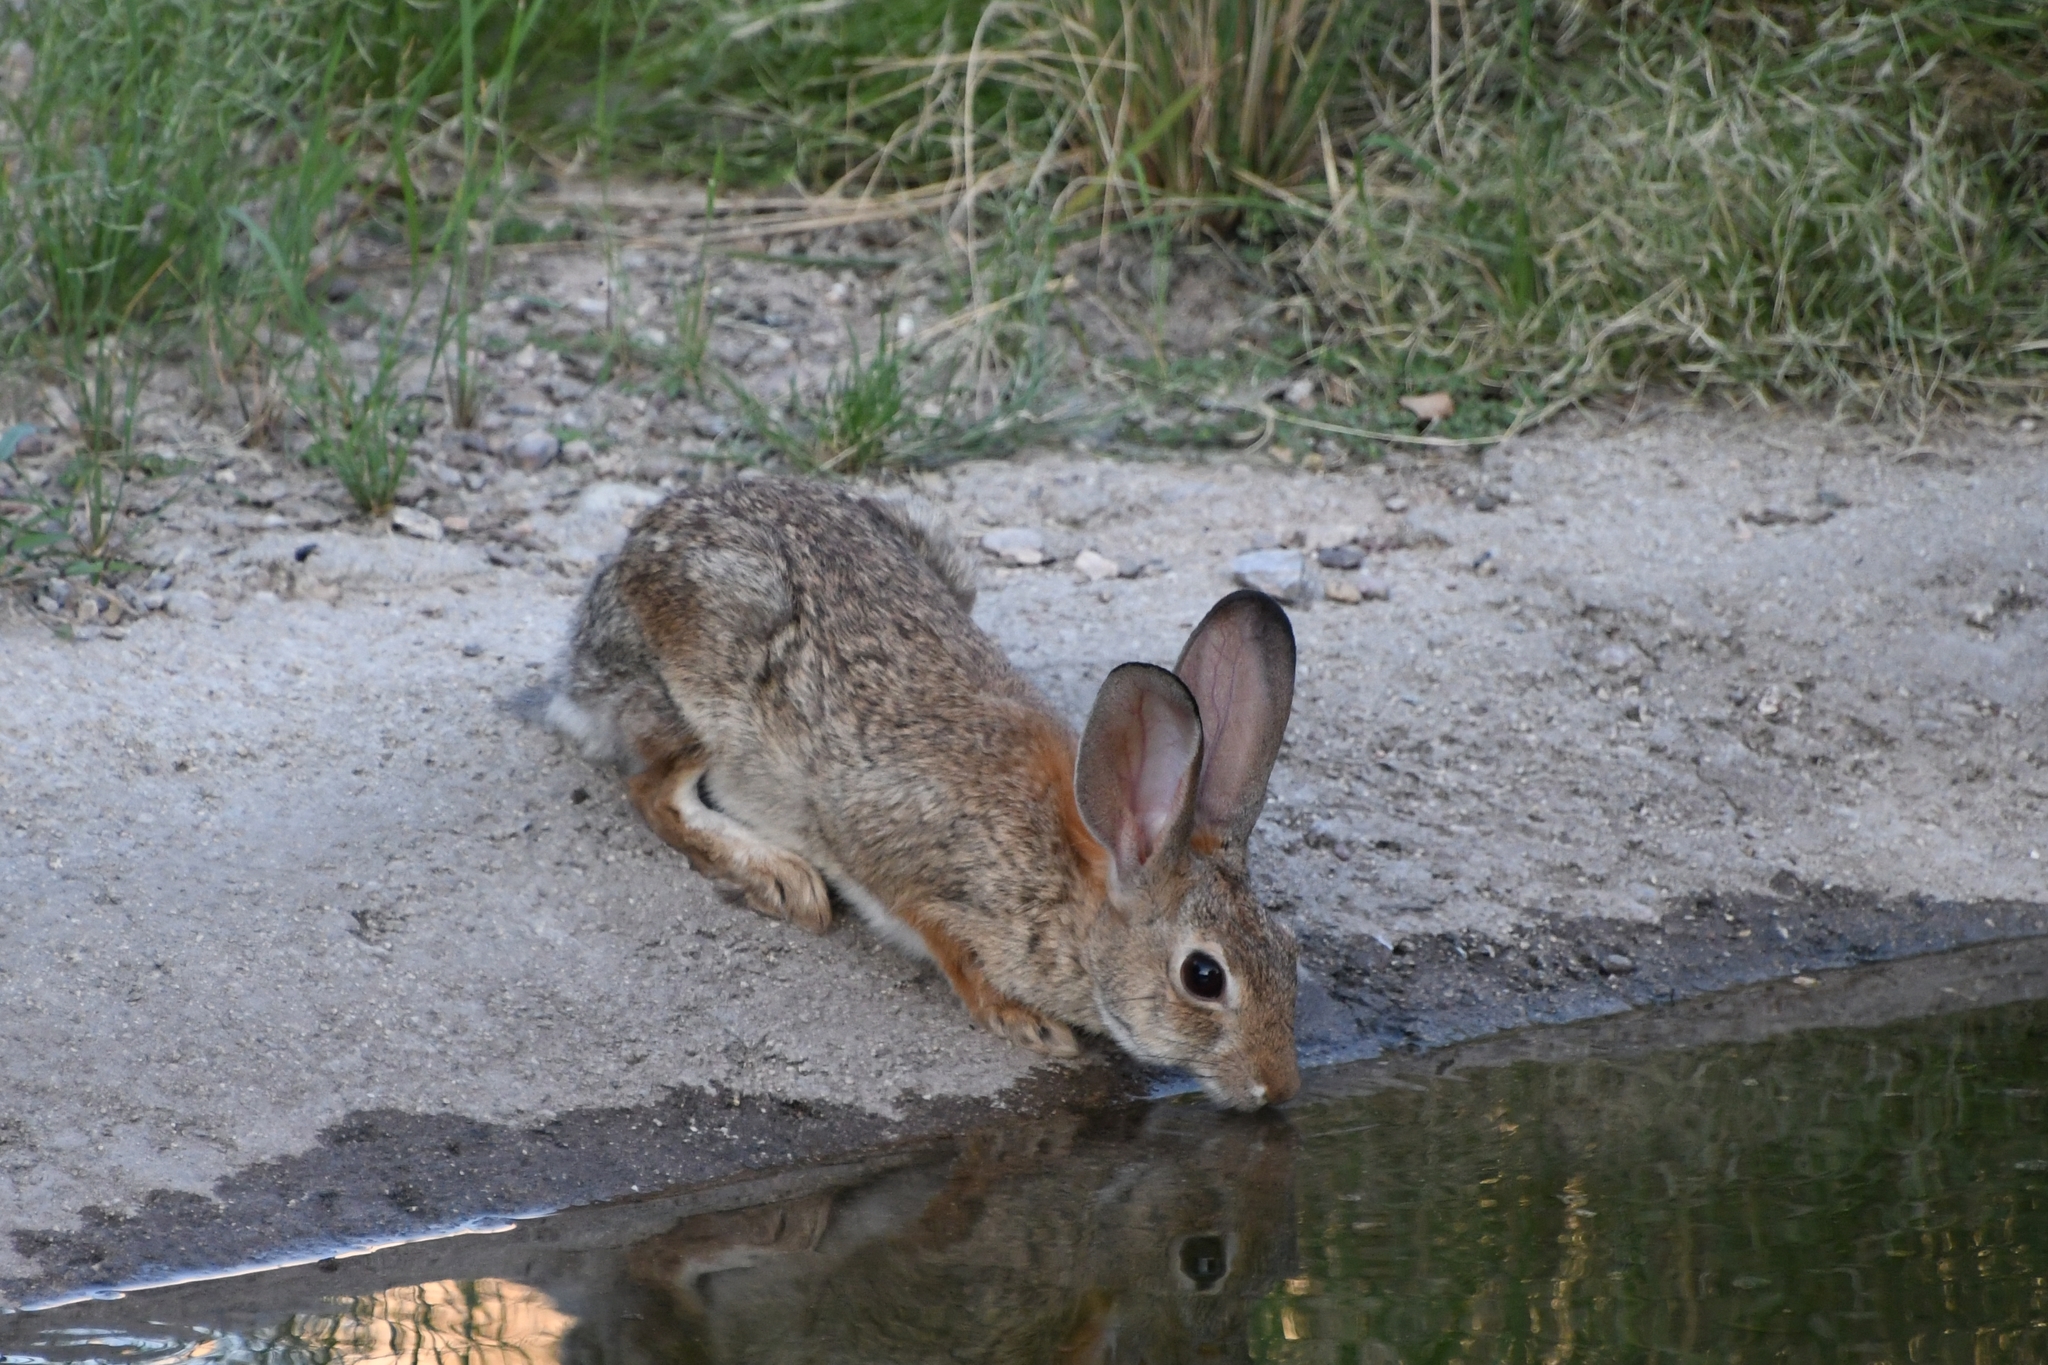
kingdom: Animalia
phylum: Chordata
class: Mammalia
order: Lagomorpha
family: Leporidae
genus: Sylvilagus
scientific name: Sylvilagus audubonii
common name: Desert cottontail
